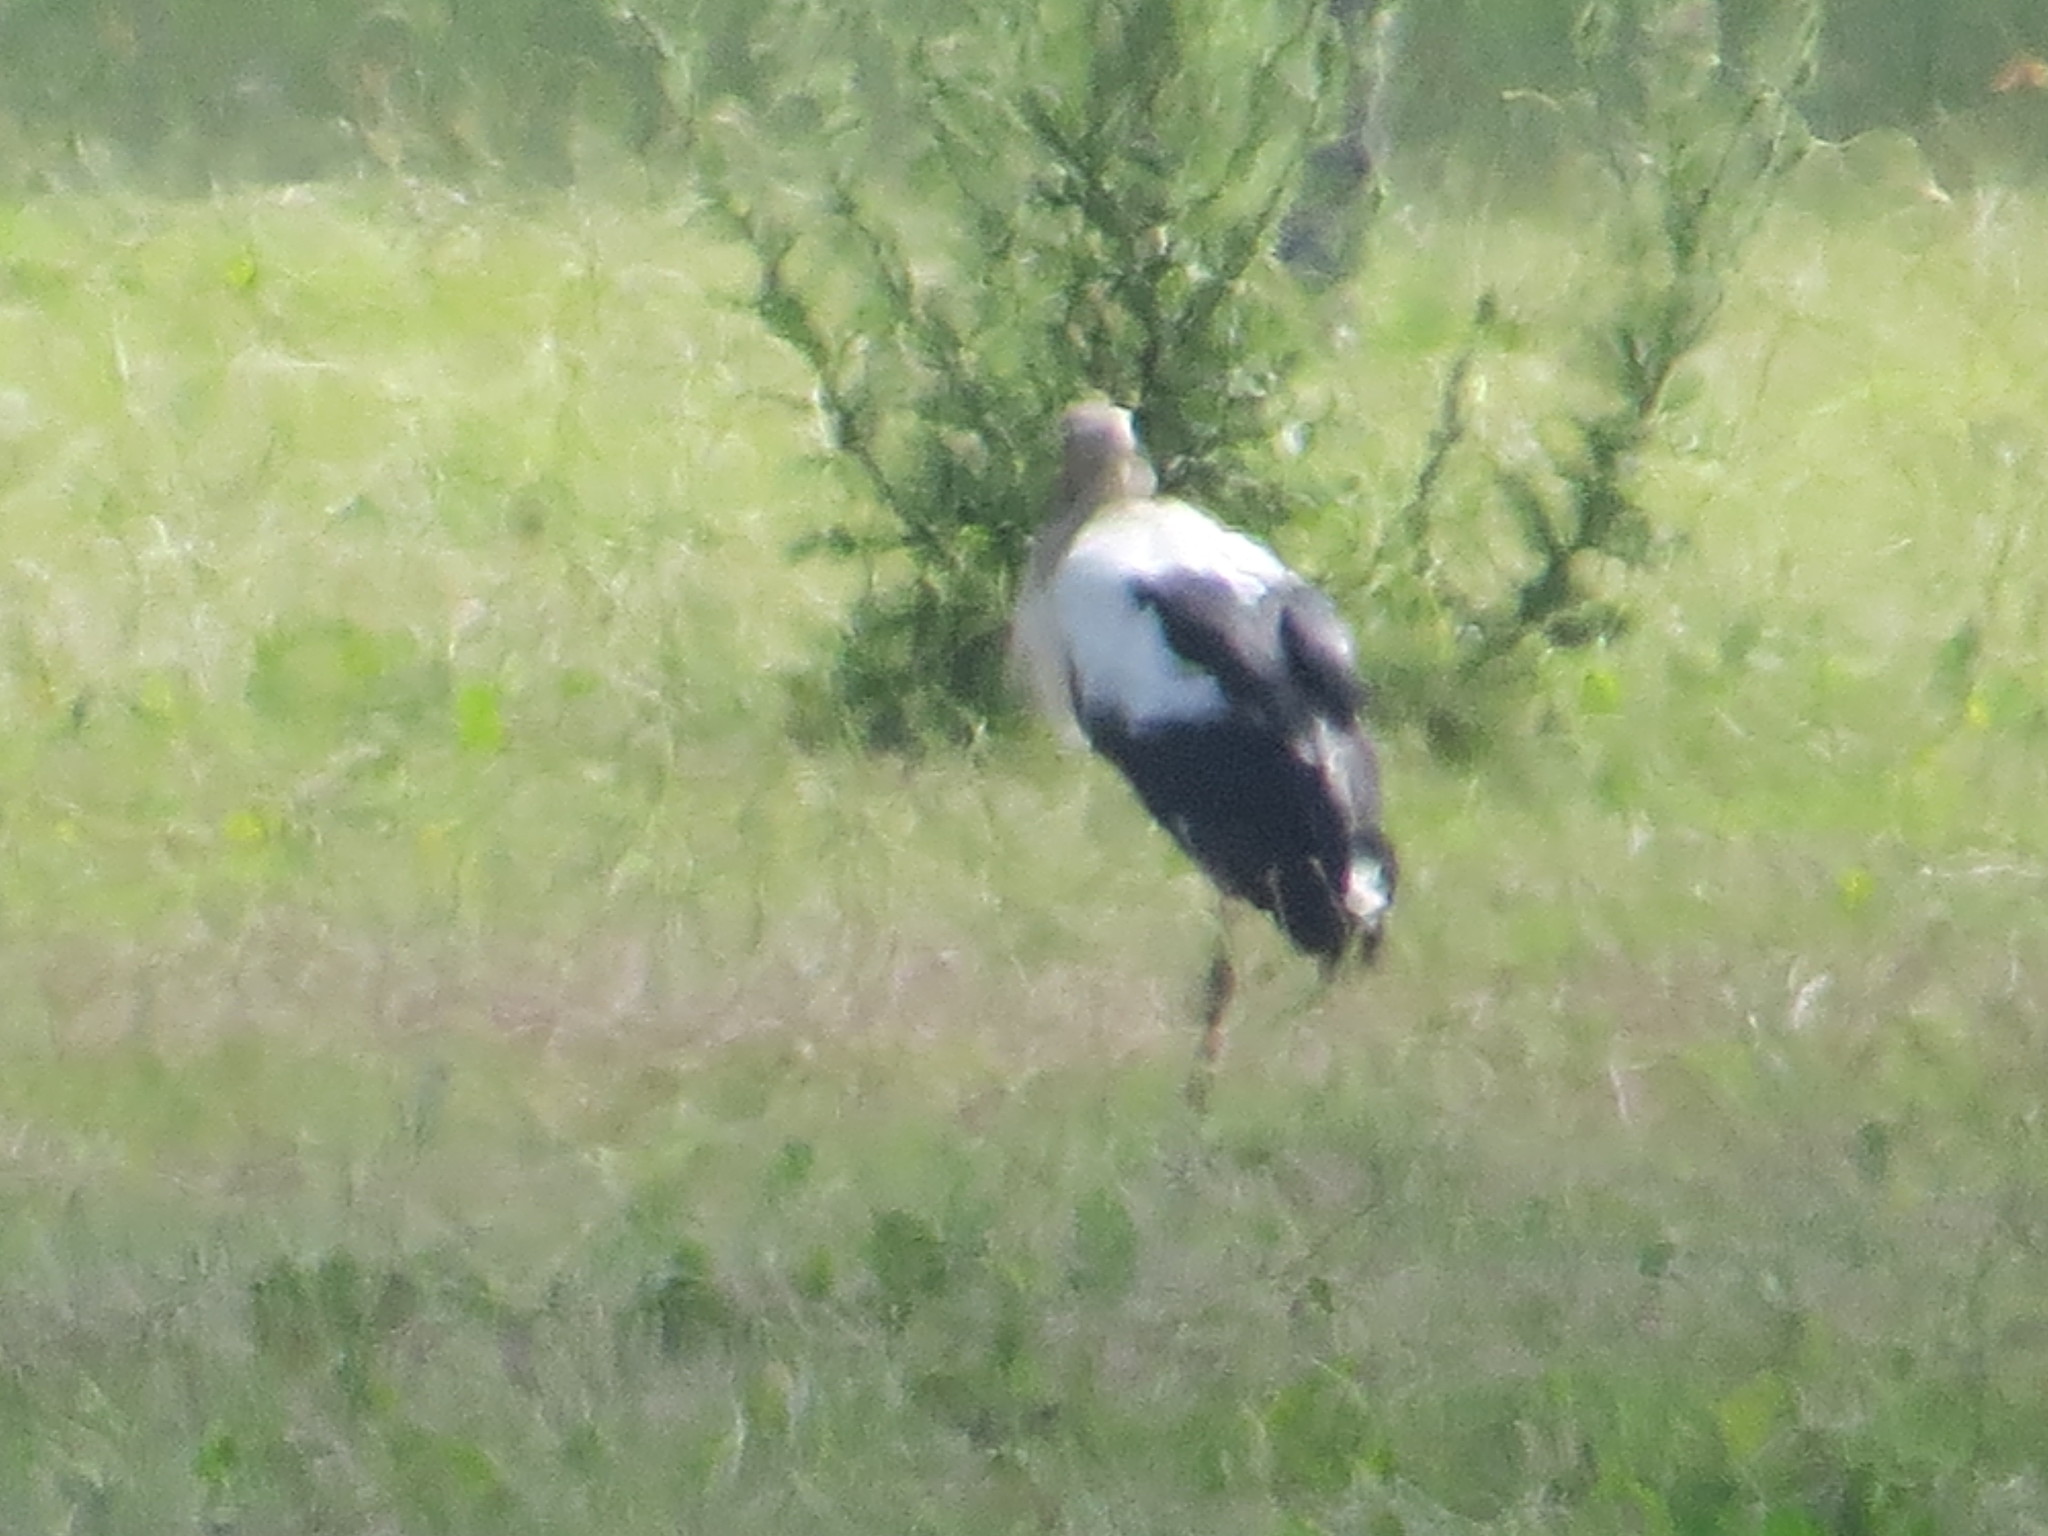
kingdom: Animalia
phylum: Chordata
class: Aves
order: Ciconiiformes
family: Ciconiidae
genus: Ciconia
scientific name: Ciconia maguari
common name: Maguari stork
